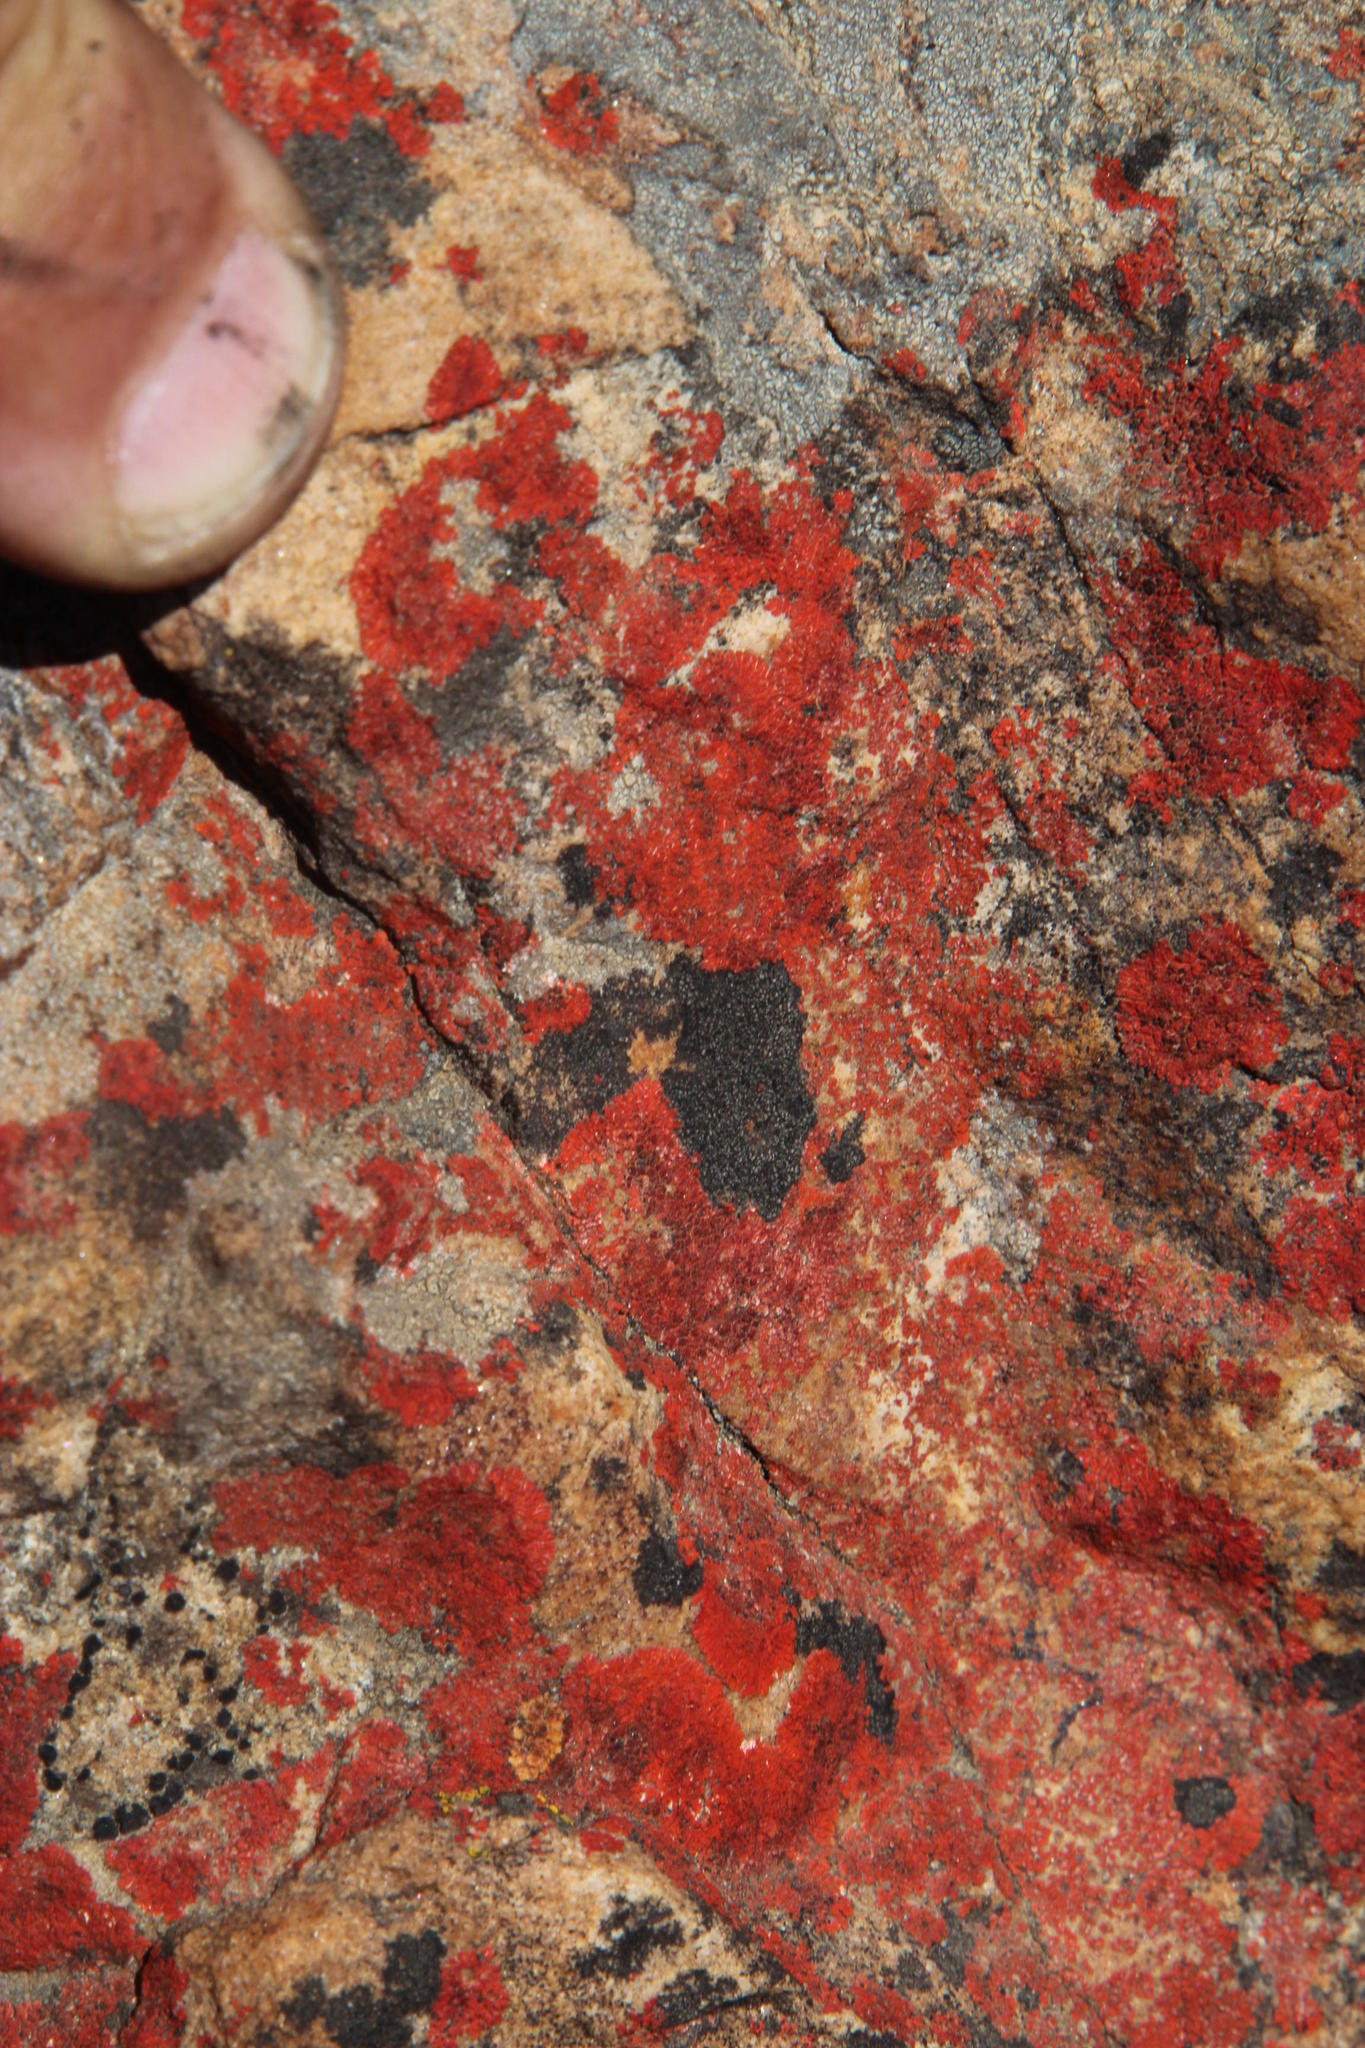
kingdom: Fungi
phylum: Ascomycota
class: Lecanoromycetes
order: Teloschistales
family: Teloschistaceae
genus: Caloplaca
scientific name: Caloplaca haematodes
